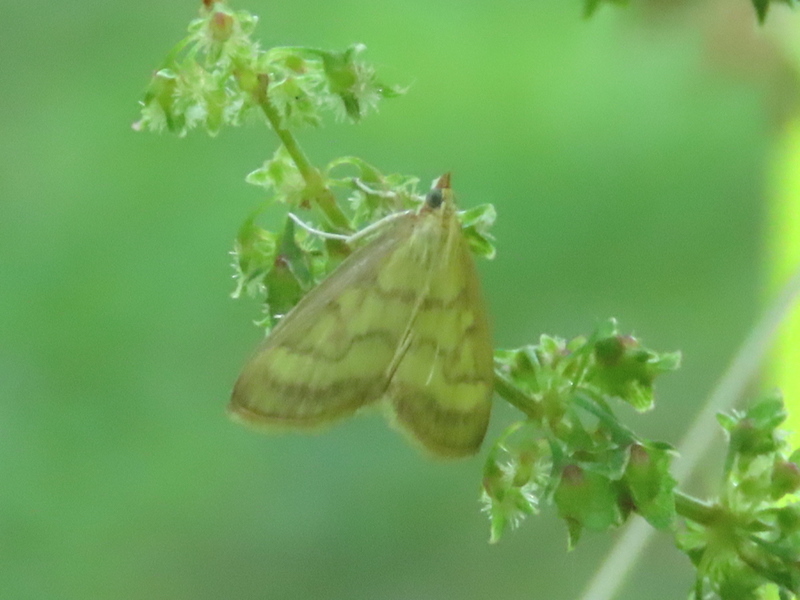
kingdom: Animalia
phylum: Arthropoda
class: Insecta
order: Lepidoptera
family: Crambidae
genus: Crocidophora
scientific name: Crocidophora tuberculalis
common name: Pale-winged crocidiphora moth
